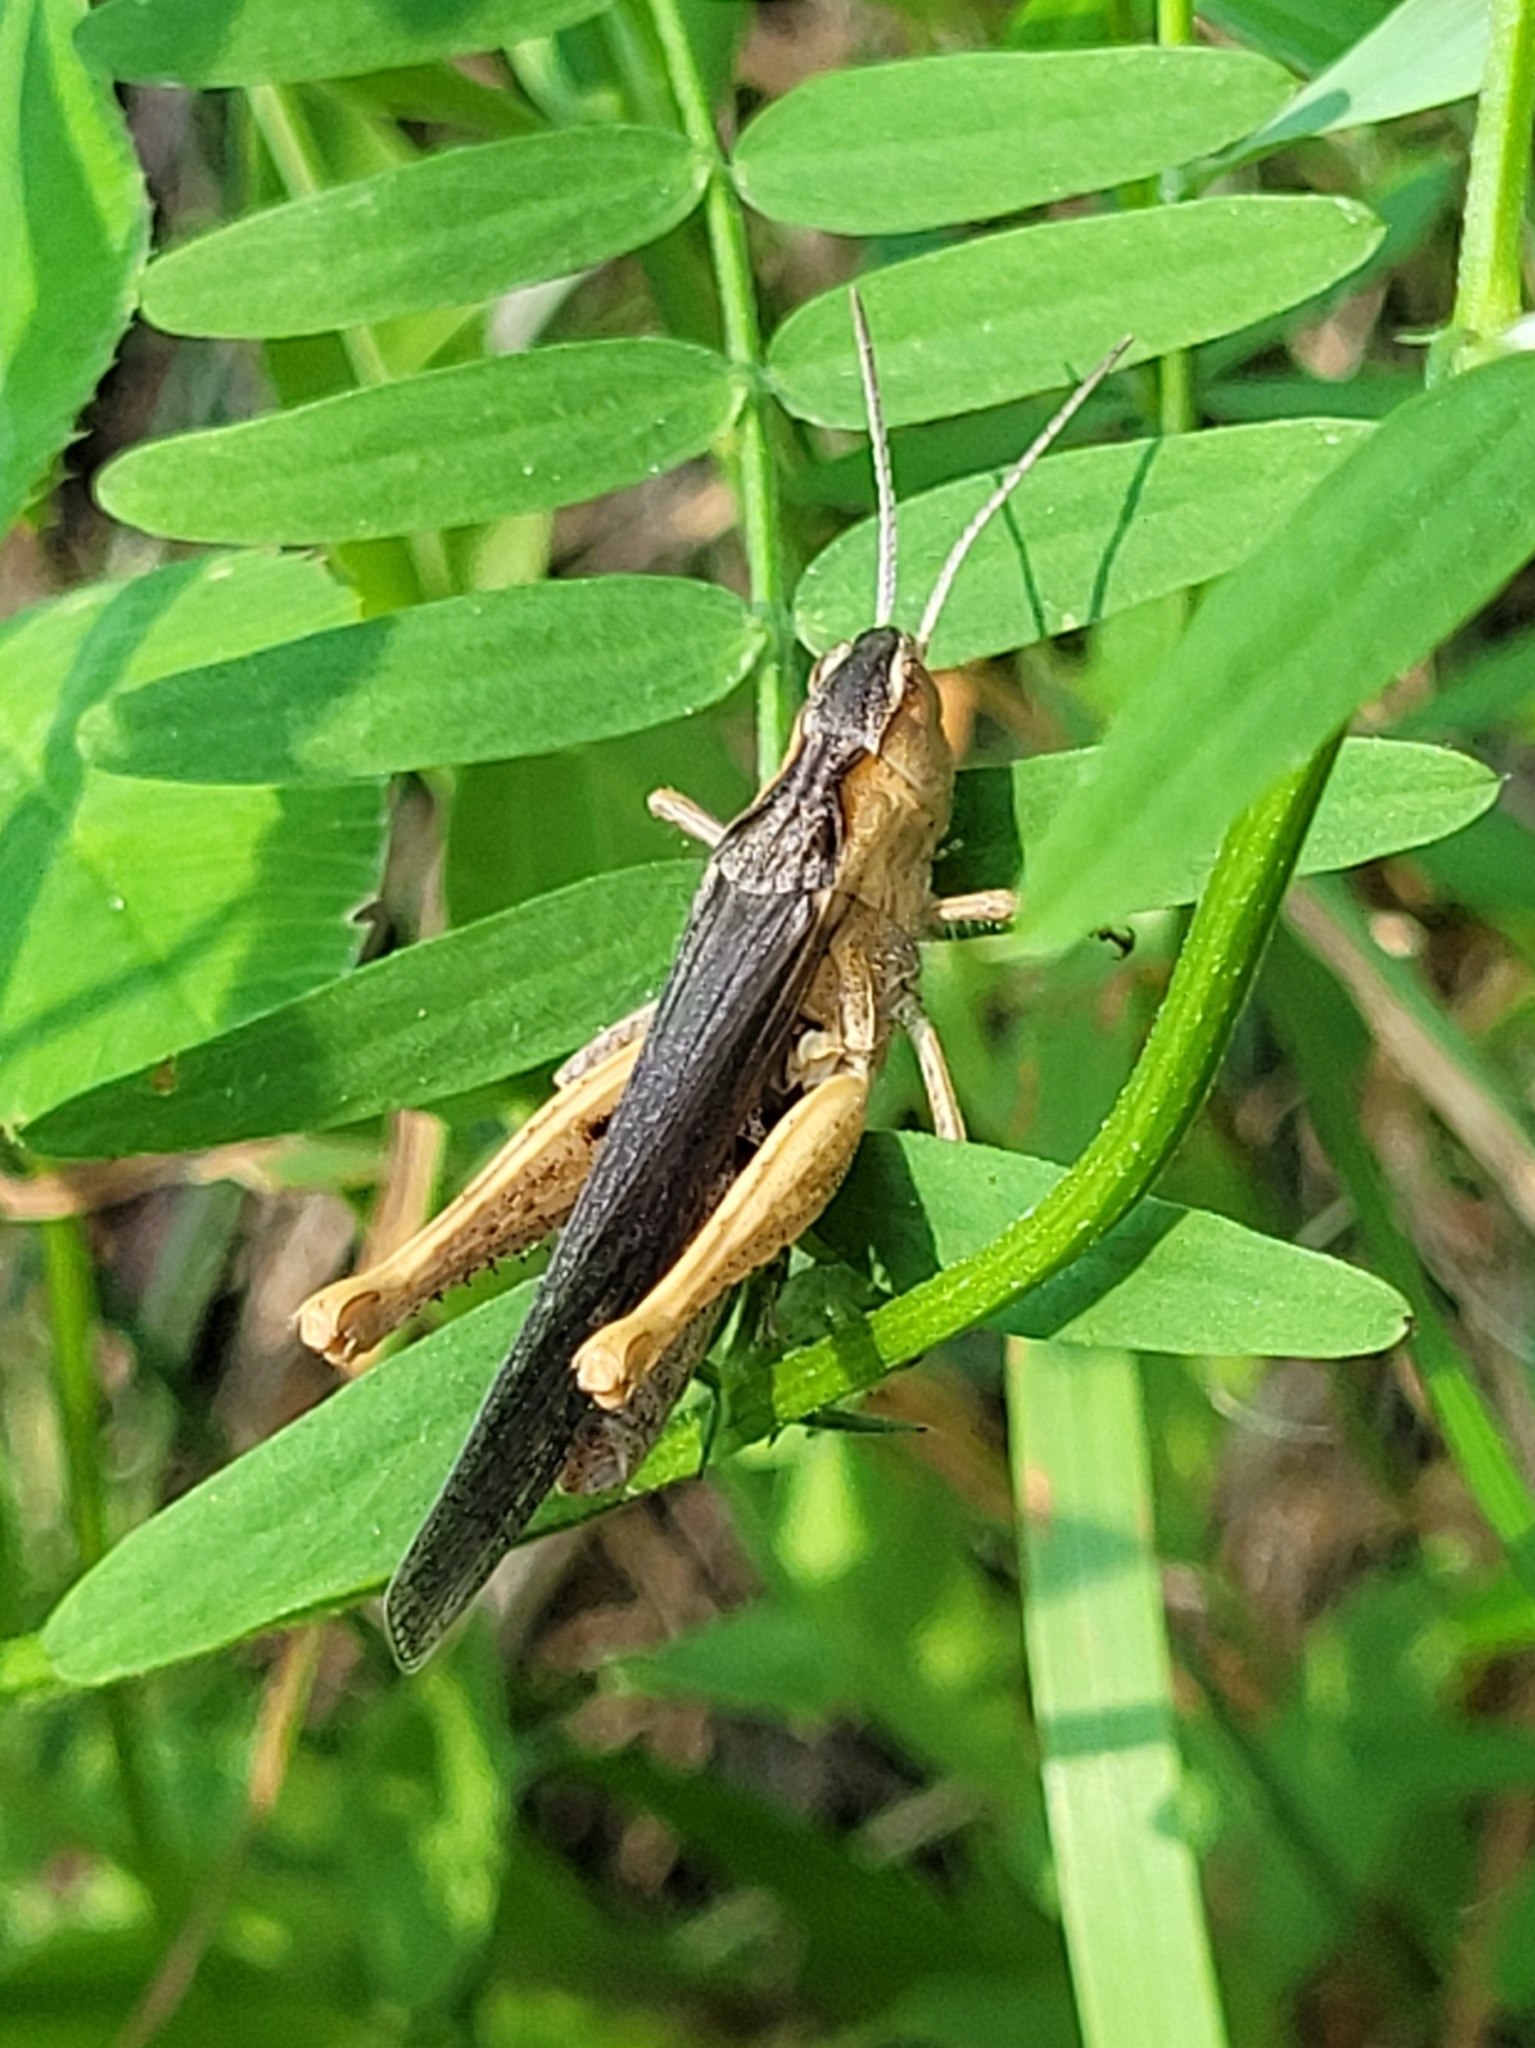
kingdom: Animalia
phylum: Arthropoda
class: Insecta
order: Orthoptera
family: Acrididae
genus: Chorthippus
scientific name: Chorthippus brunneus
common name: Field grasshopper
